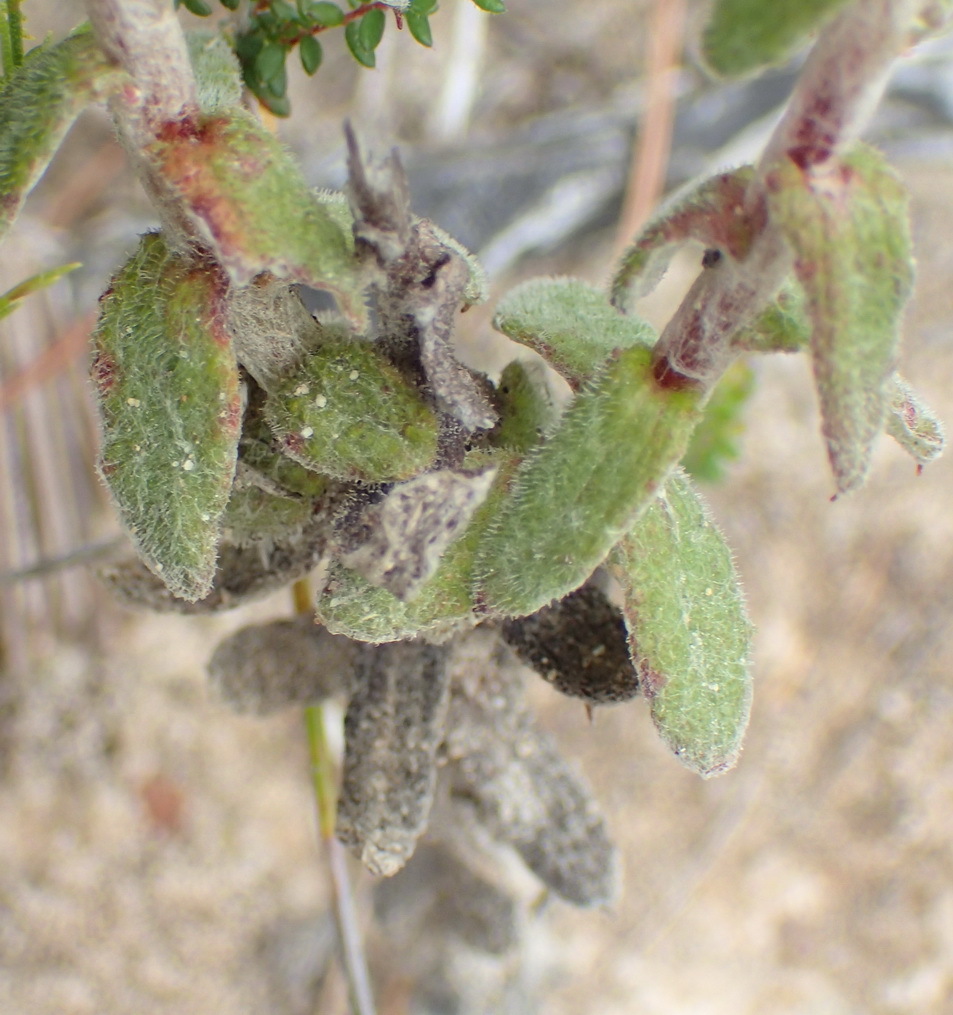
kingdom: Plantae
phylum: Tracheophyta
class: Magnoliopsida
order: Asterales
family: Asteraceae
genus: Helichrysum
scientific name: Helichrysum felinum
